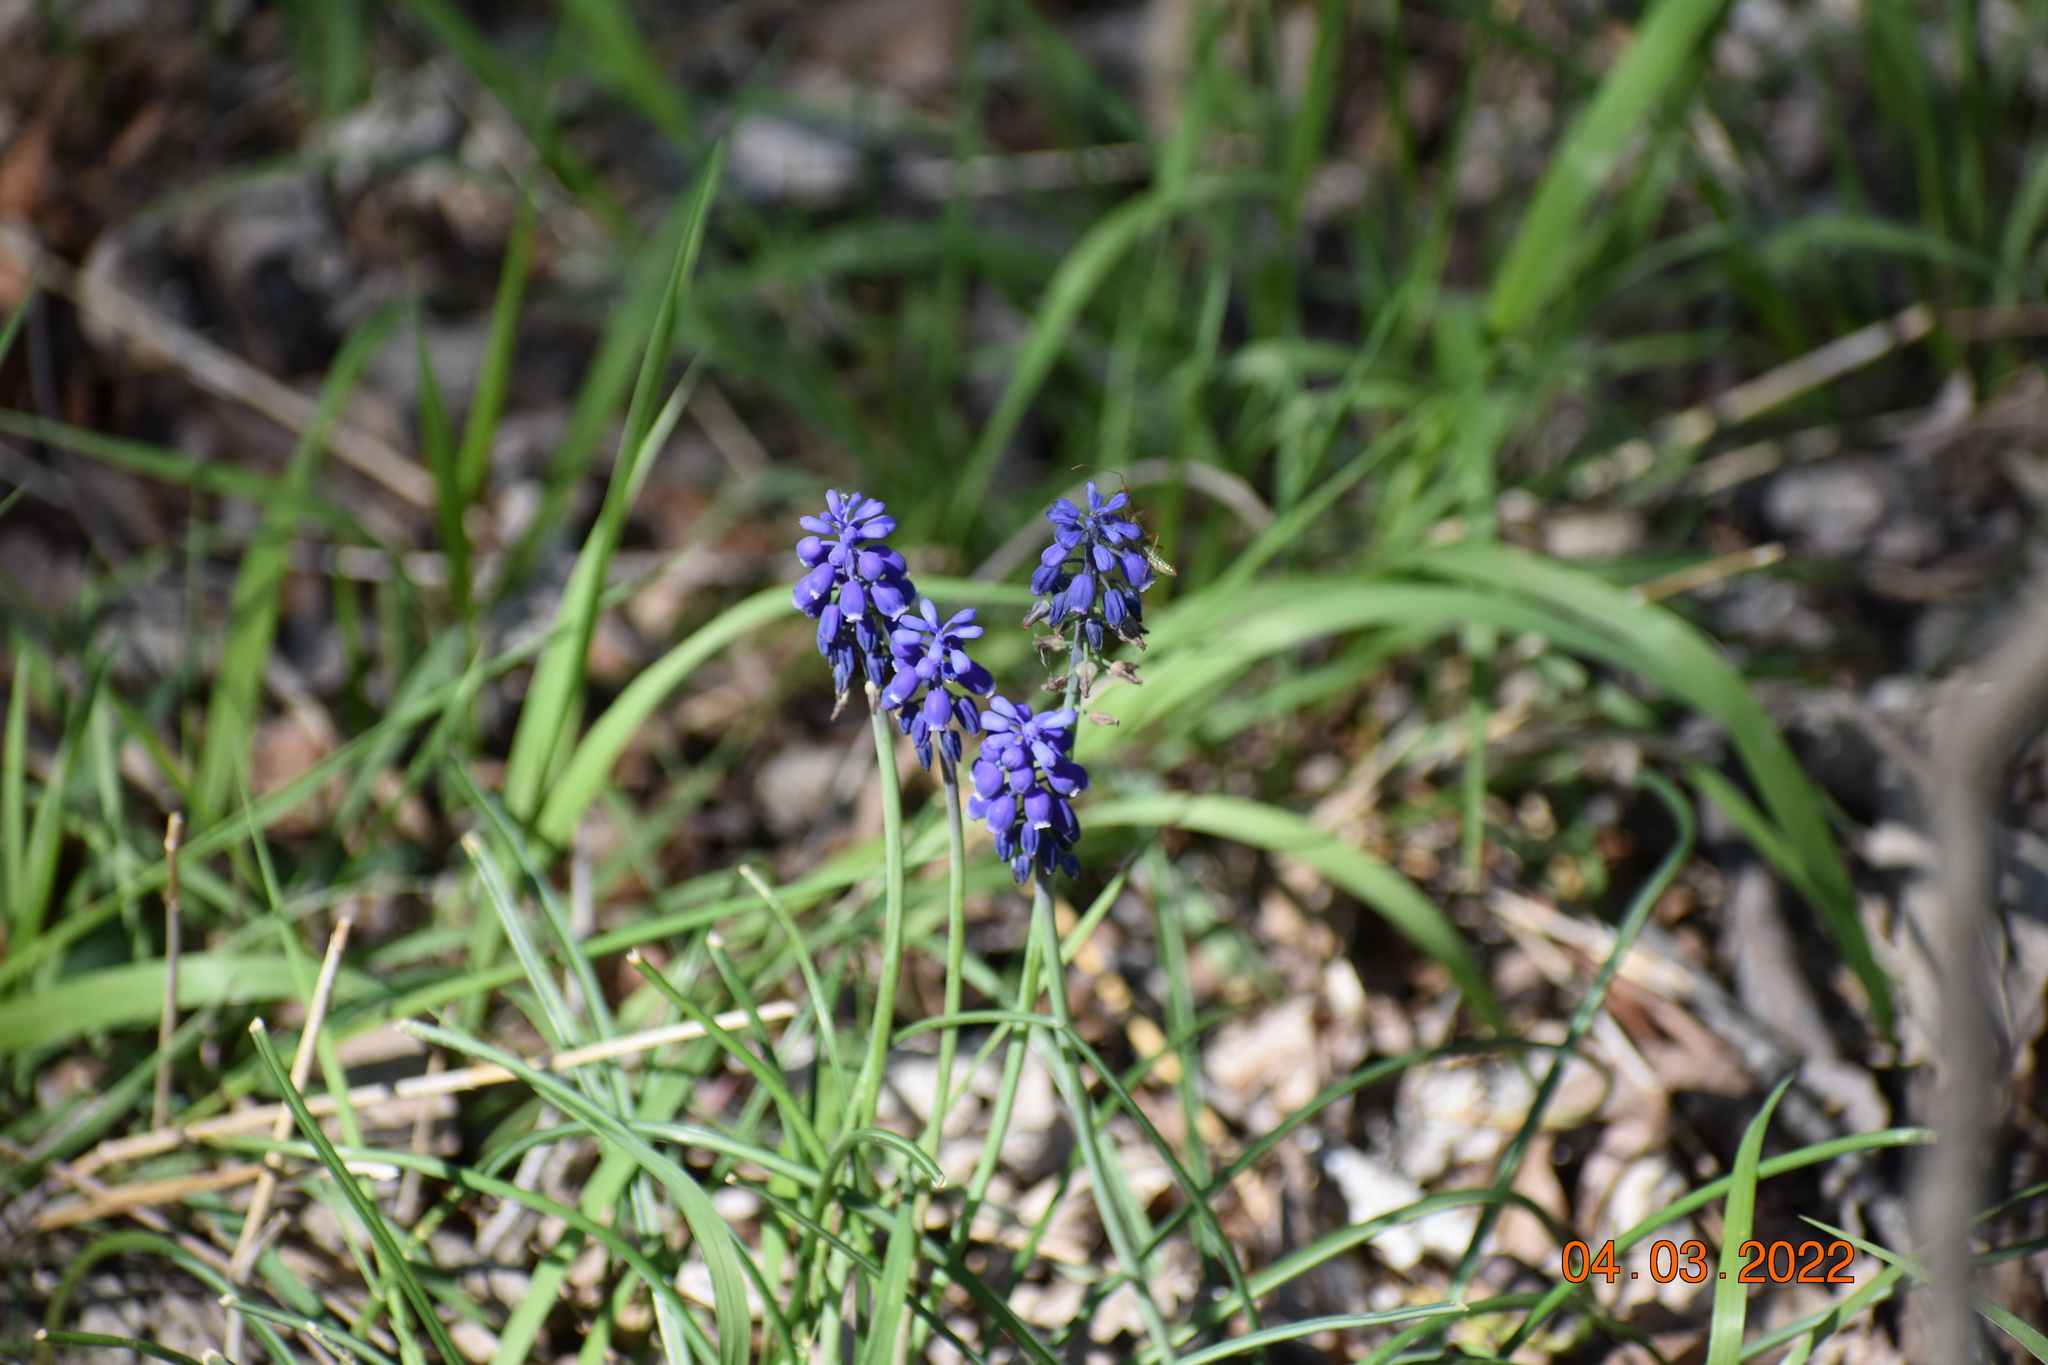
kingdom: Plantae
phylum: Tracheophyta
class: Liliopsida
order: Asparagales
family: Asparagaceae
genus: Muscari
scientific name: Muscari neglectum
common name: Grape-hyacinth
